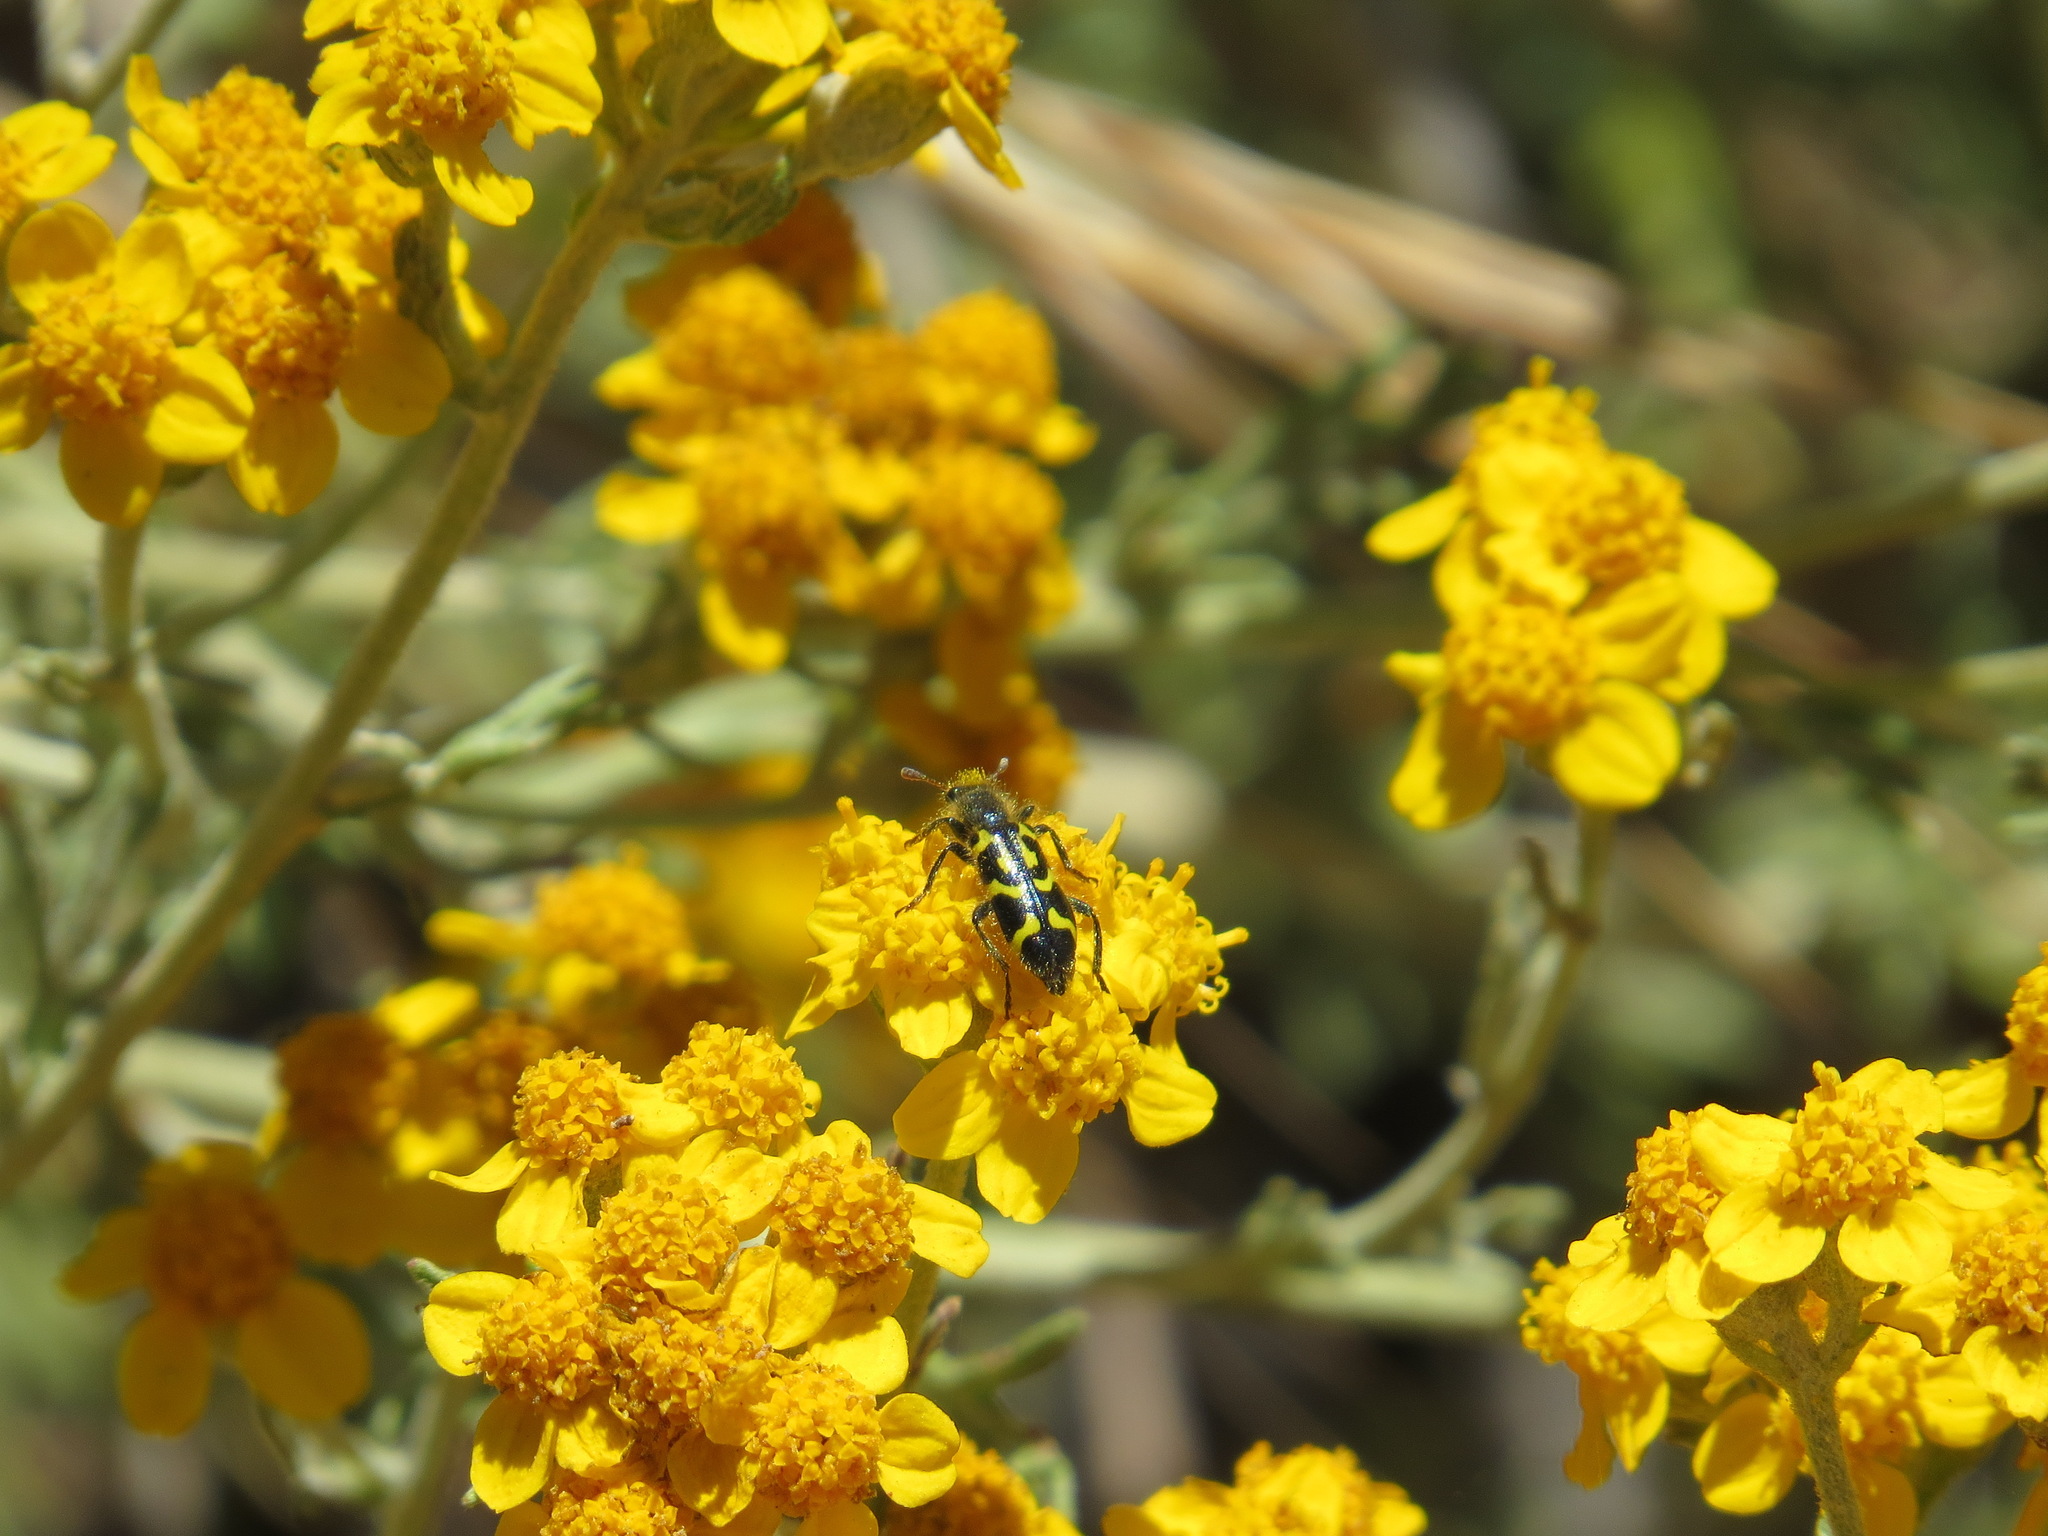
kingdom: Animalia
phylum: Arthropoda
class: Insecta
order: Coleoptera
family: Cleridae
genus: Trichodes
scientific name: Trichodes ornatus
